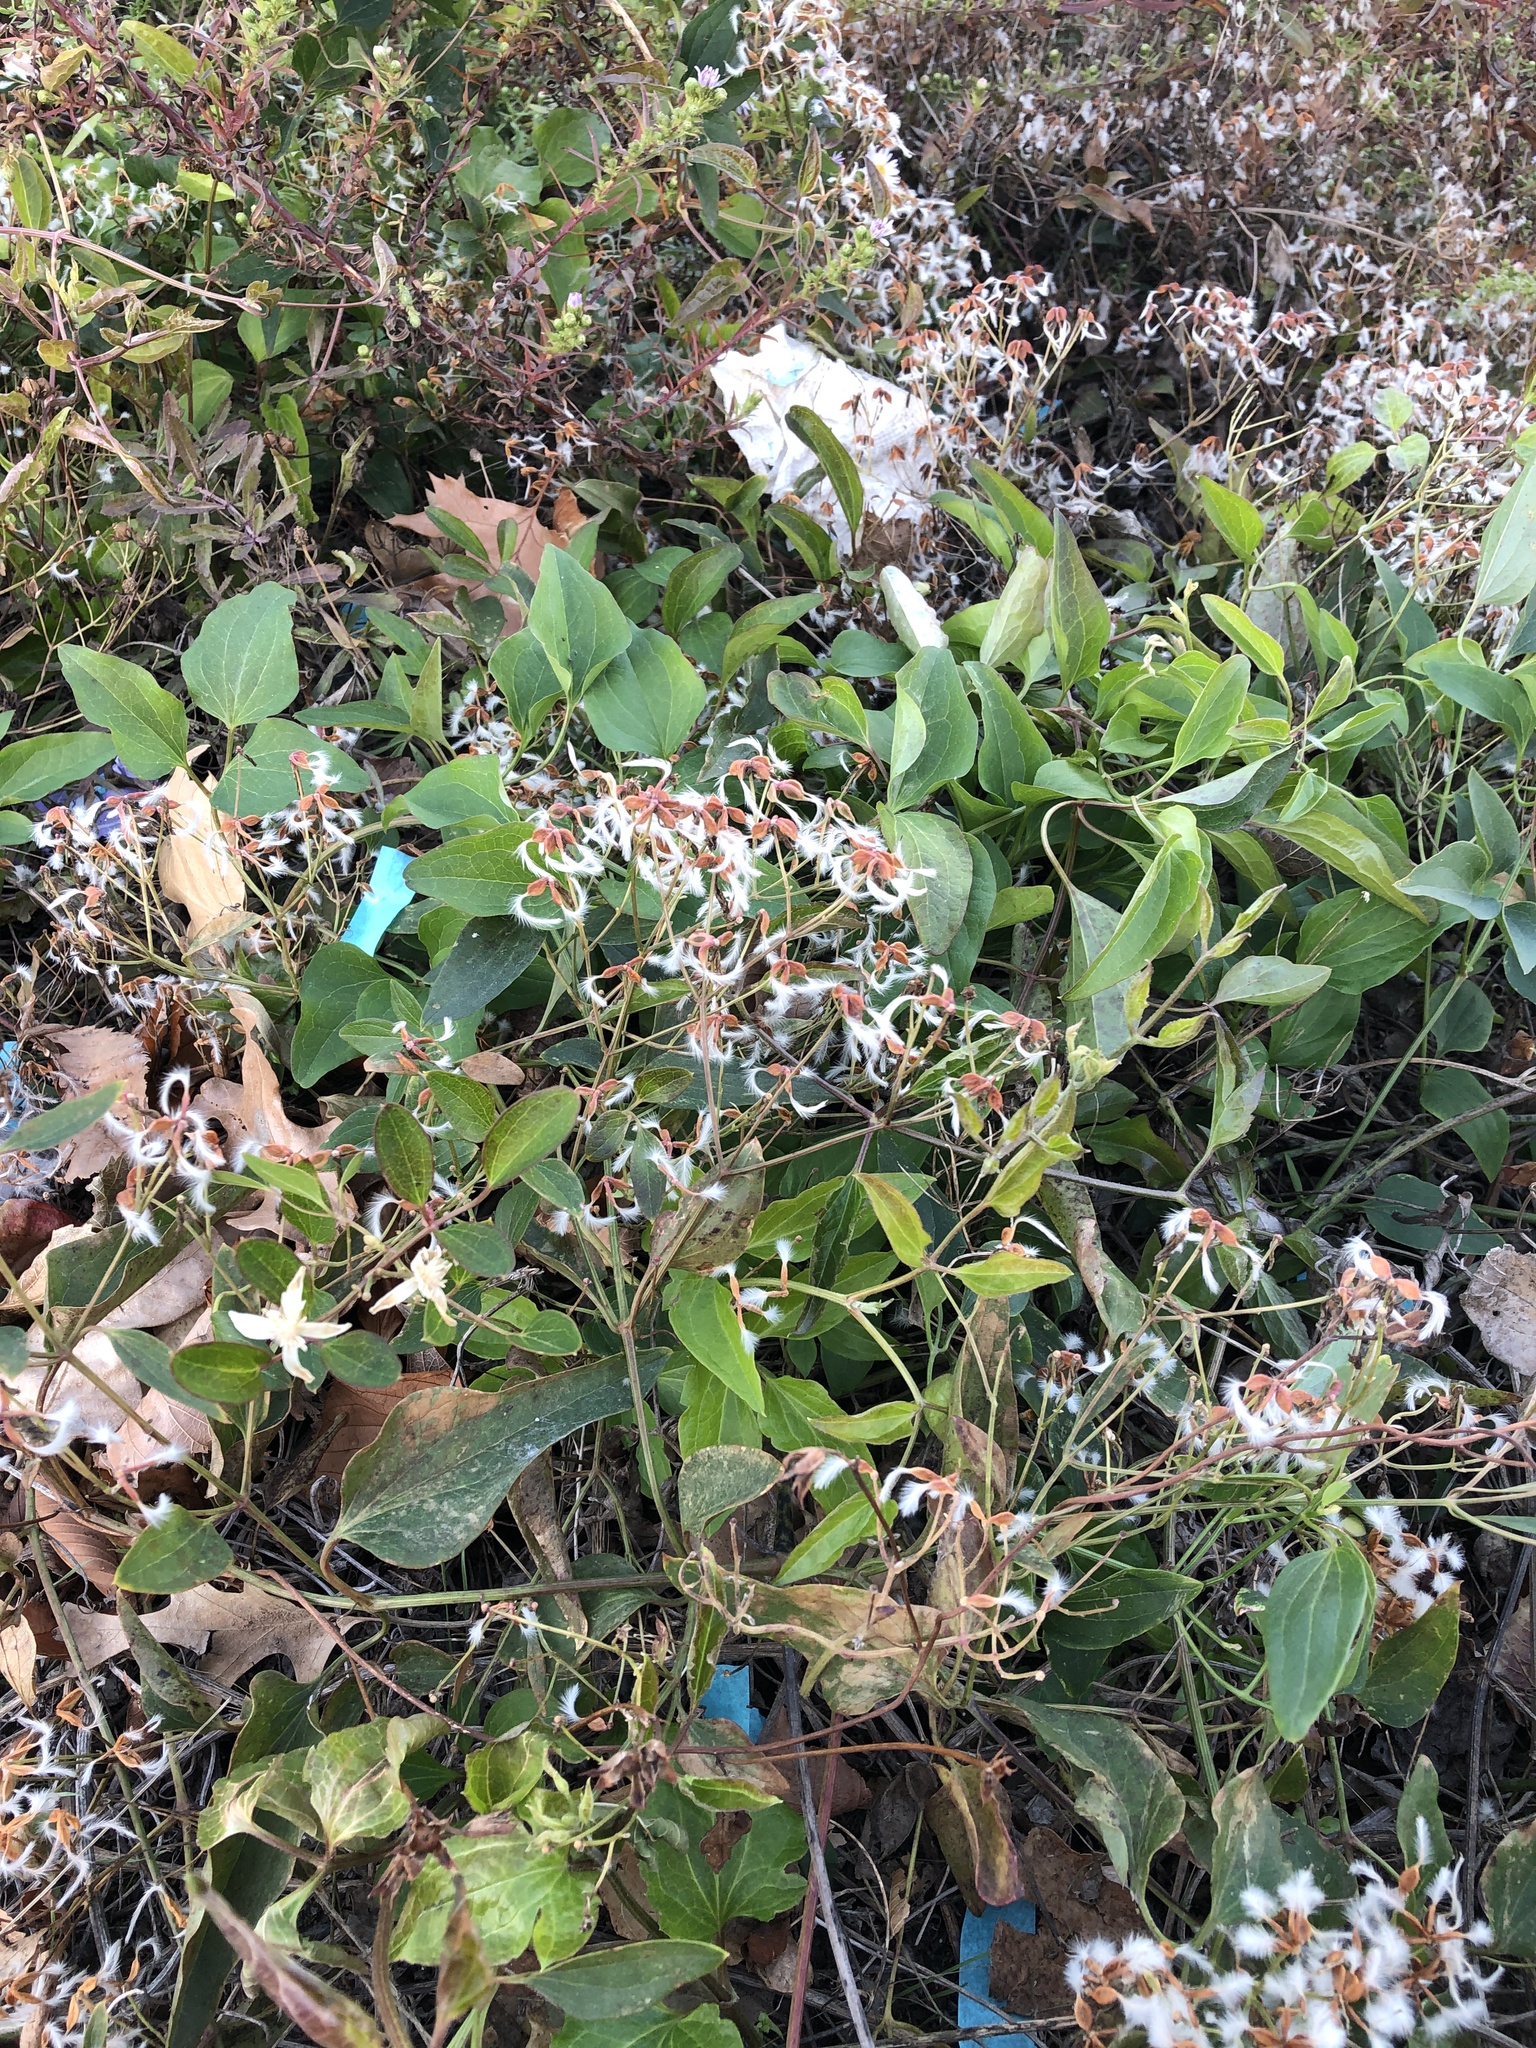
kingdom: Plantae
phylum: Tracheophyta
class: Magnoliopsida
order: Ranunculales
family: Ranunculaceae
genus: Clematis
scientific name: Clematis terniflora
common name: Sweet autumn clematis
